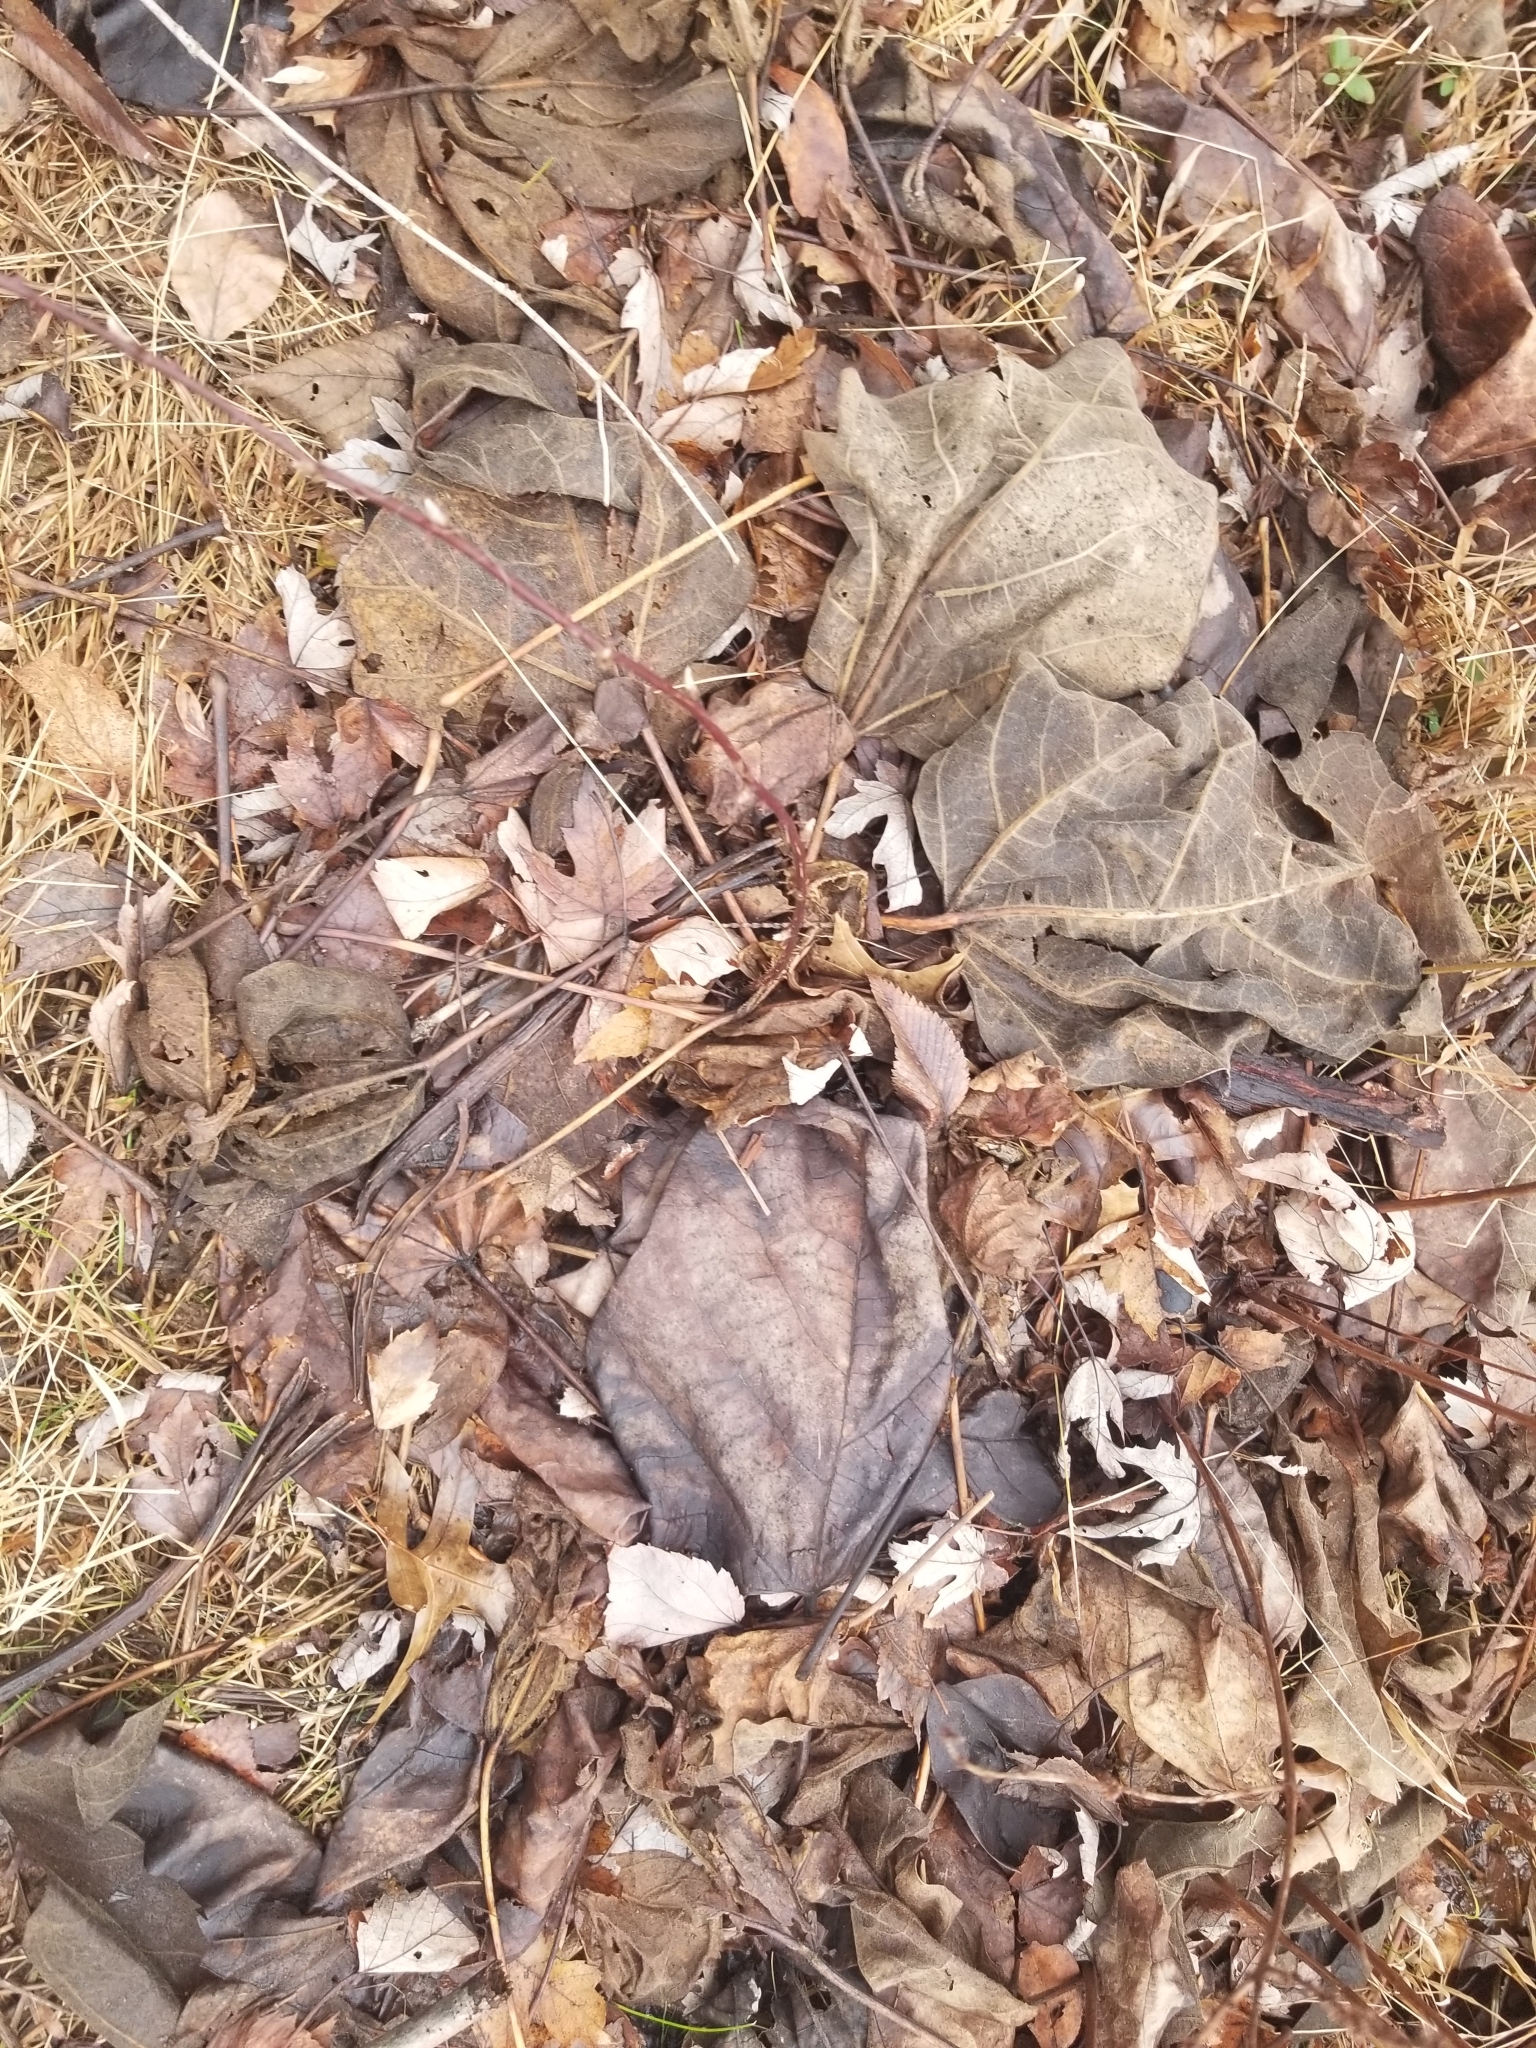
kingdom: Plantae
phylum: Tracheophyta
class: Magnoliopsida
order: Lamiales
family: Bignoniaceae
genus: Catalpa
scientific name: Catalpa speciosa
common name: Northern catalpa
